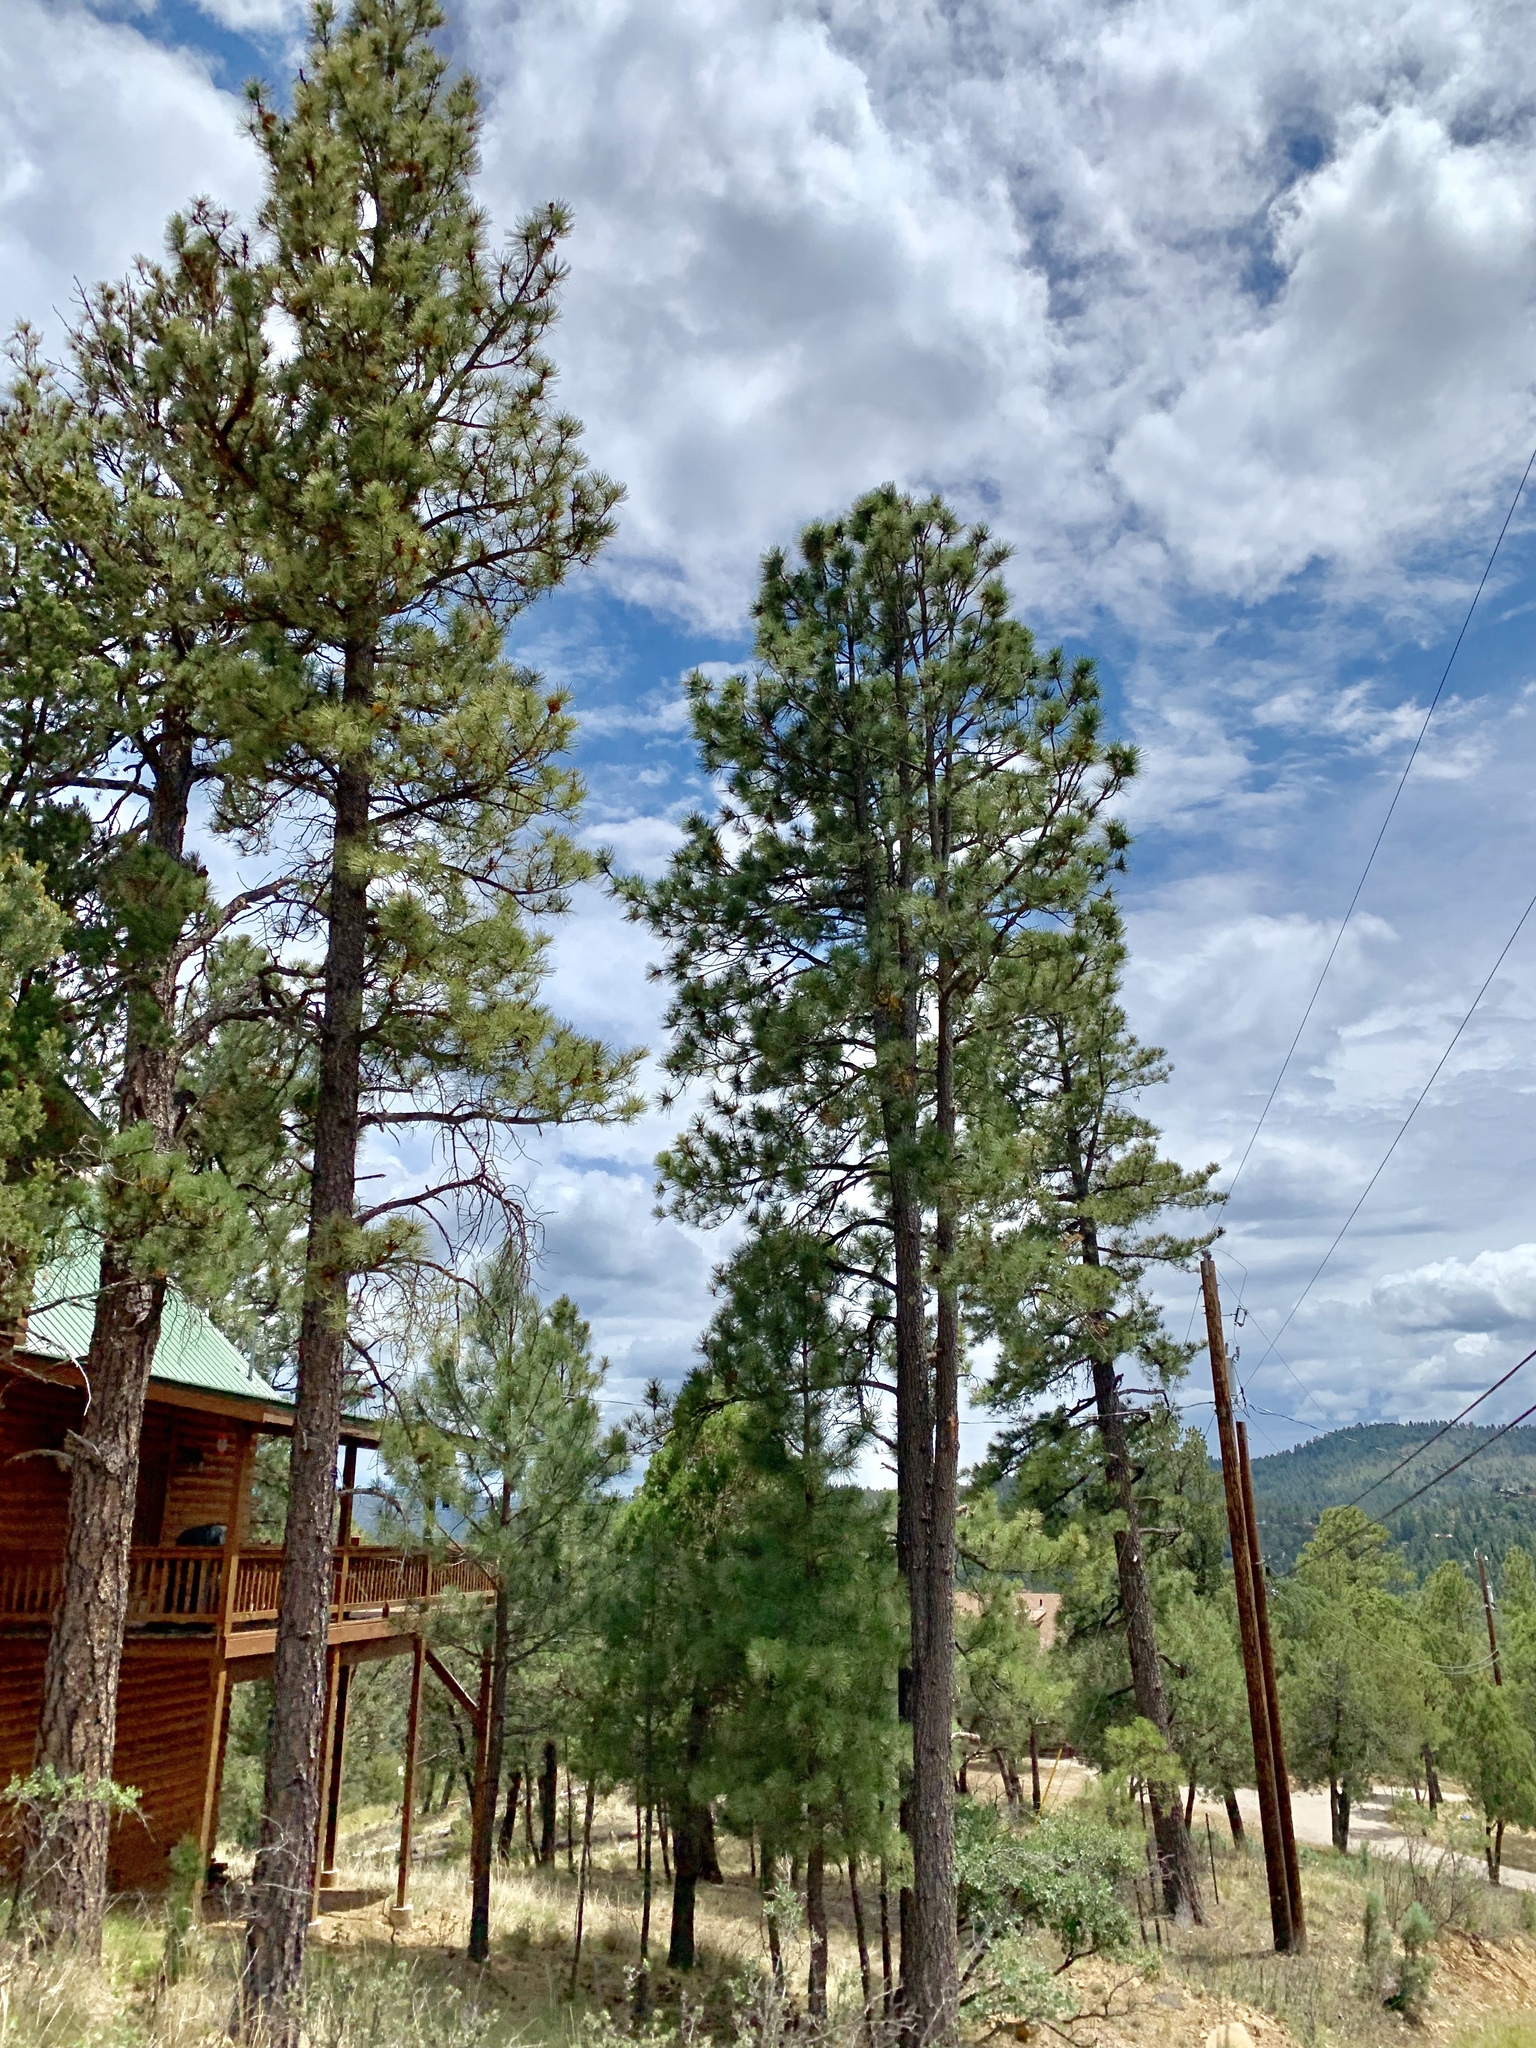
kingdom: Plantae
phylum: Tracheophyta
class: Pinopsida
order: Pinales
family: Pinaceae
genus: Pinus
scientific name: Pinus ponderosa
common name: Western yellow-pine
